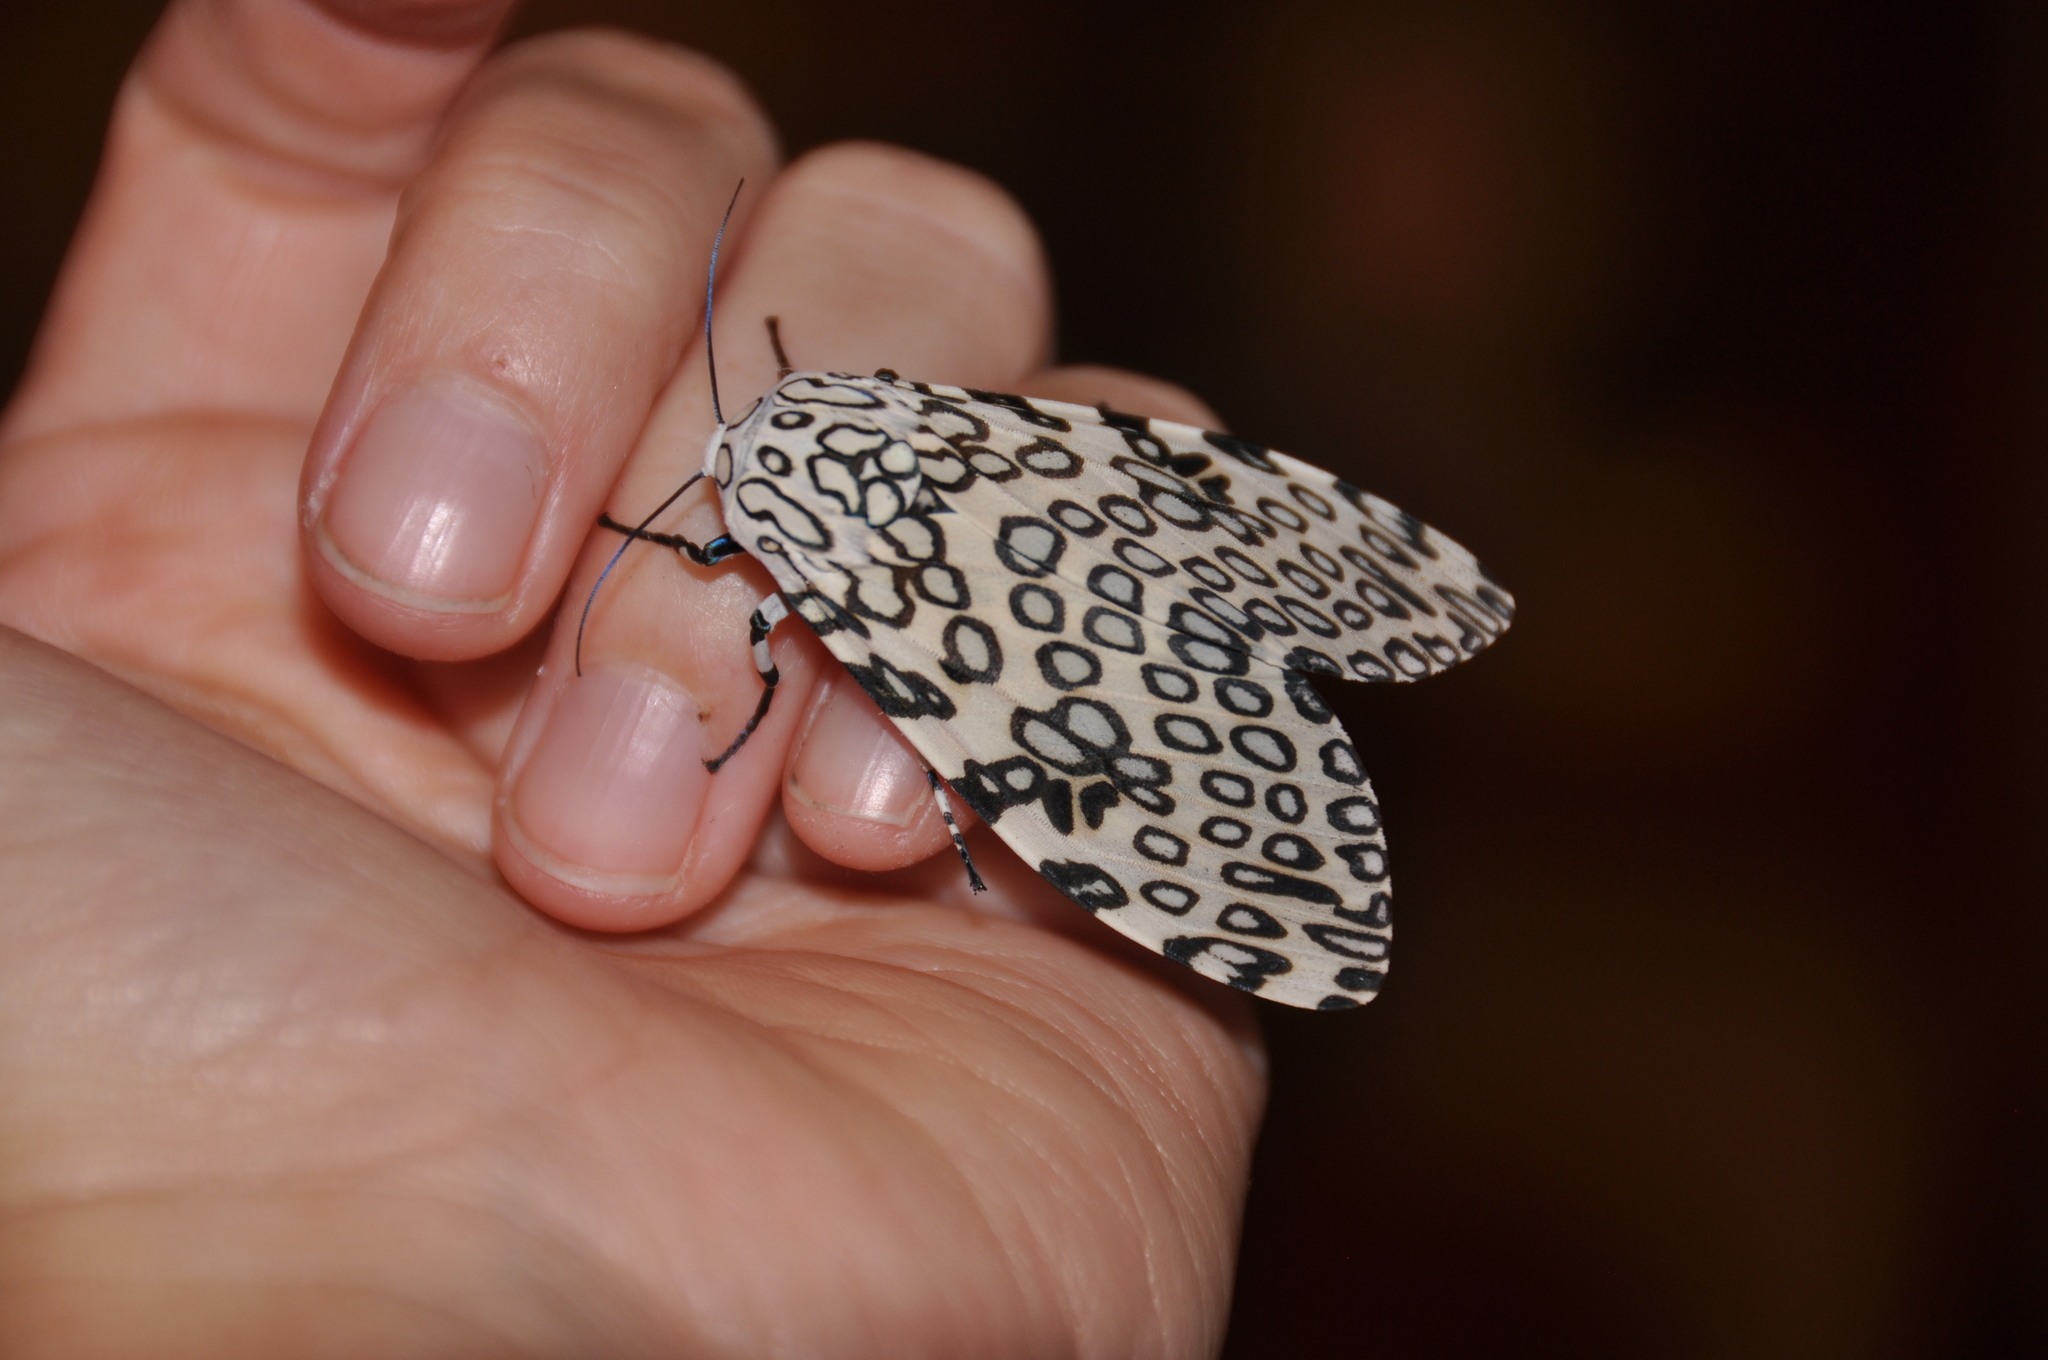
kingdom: Animalia
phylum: Arthropoda
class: Insecta
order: Lepidoptera
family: Erebidae
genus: Hypercompe
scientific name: Hypercompe scribonia
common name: Giant leopard moth
